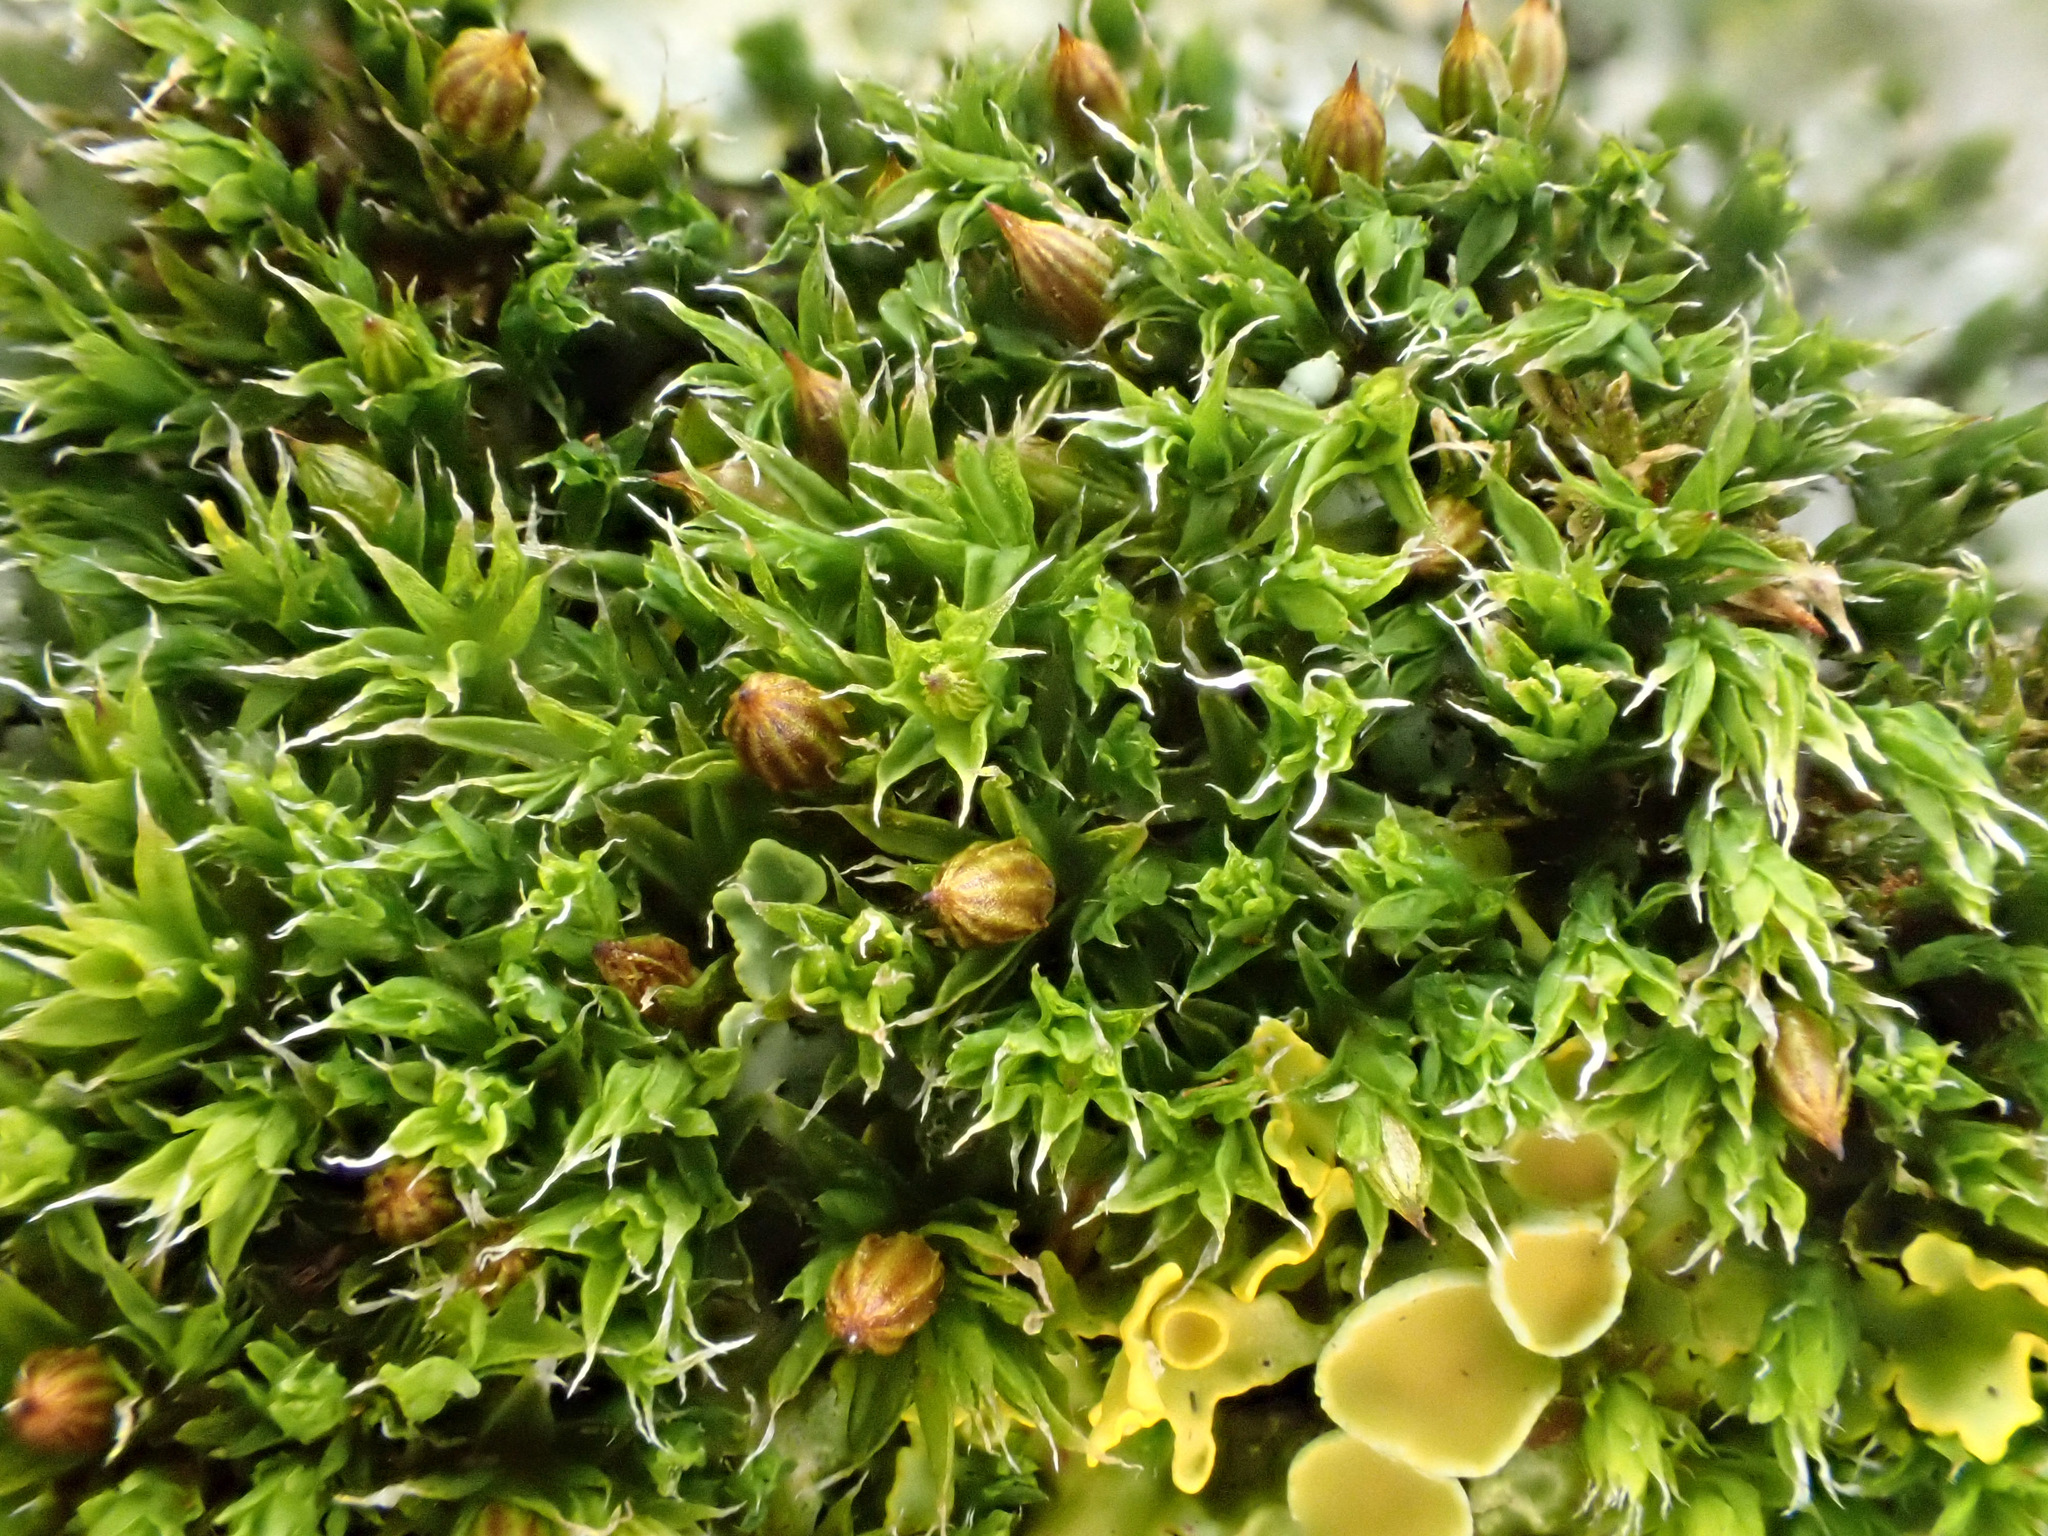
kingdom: Plantae
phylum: Bryophyta
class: Bryopsida
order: Orthotrichales
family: Orthotrichaceae
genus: Orthotrichum
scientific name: Orthotrichum diaphanum
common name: White-tipped bristle-moss
